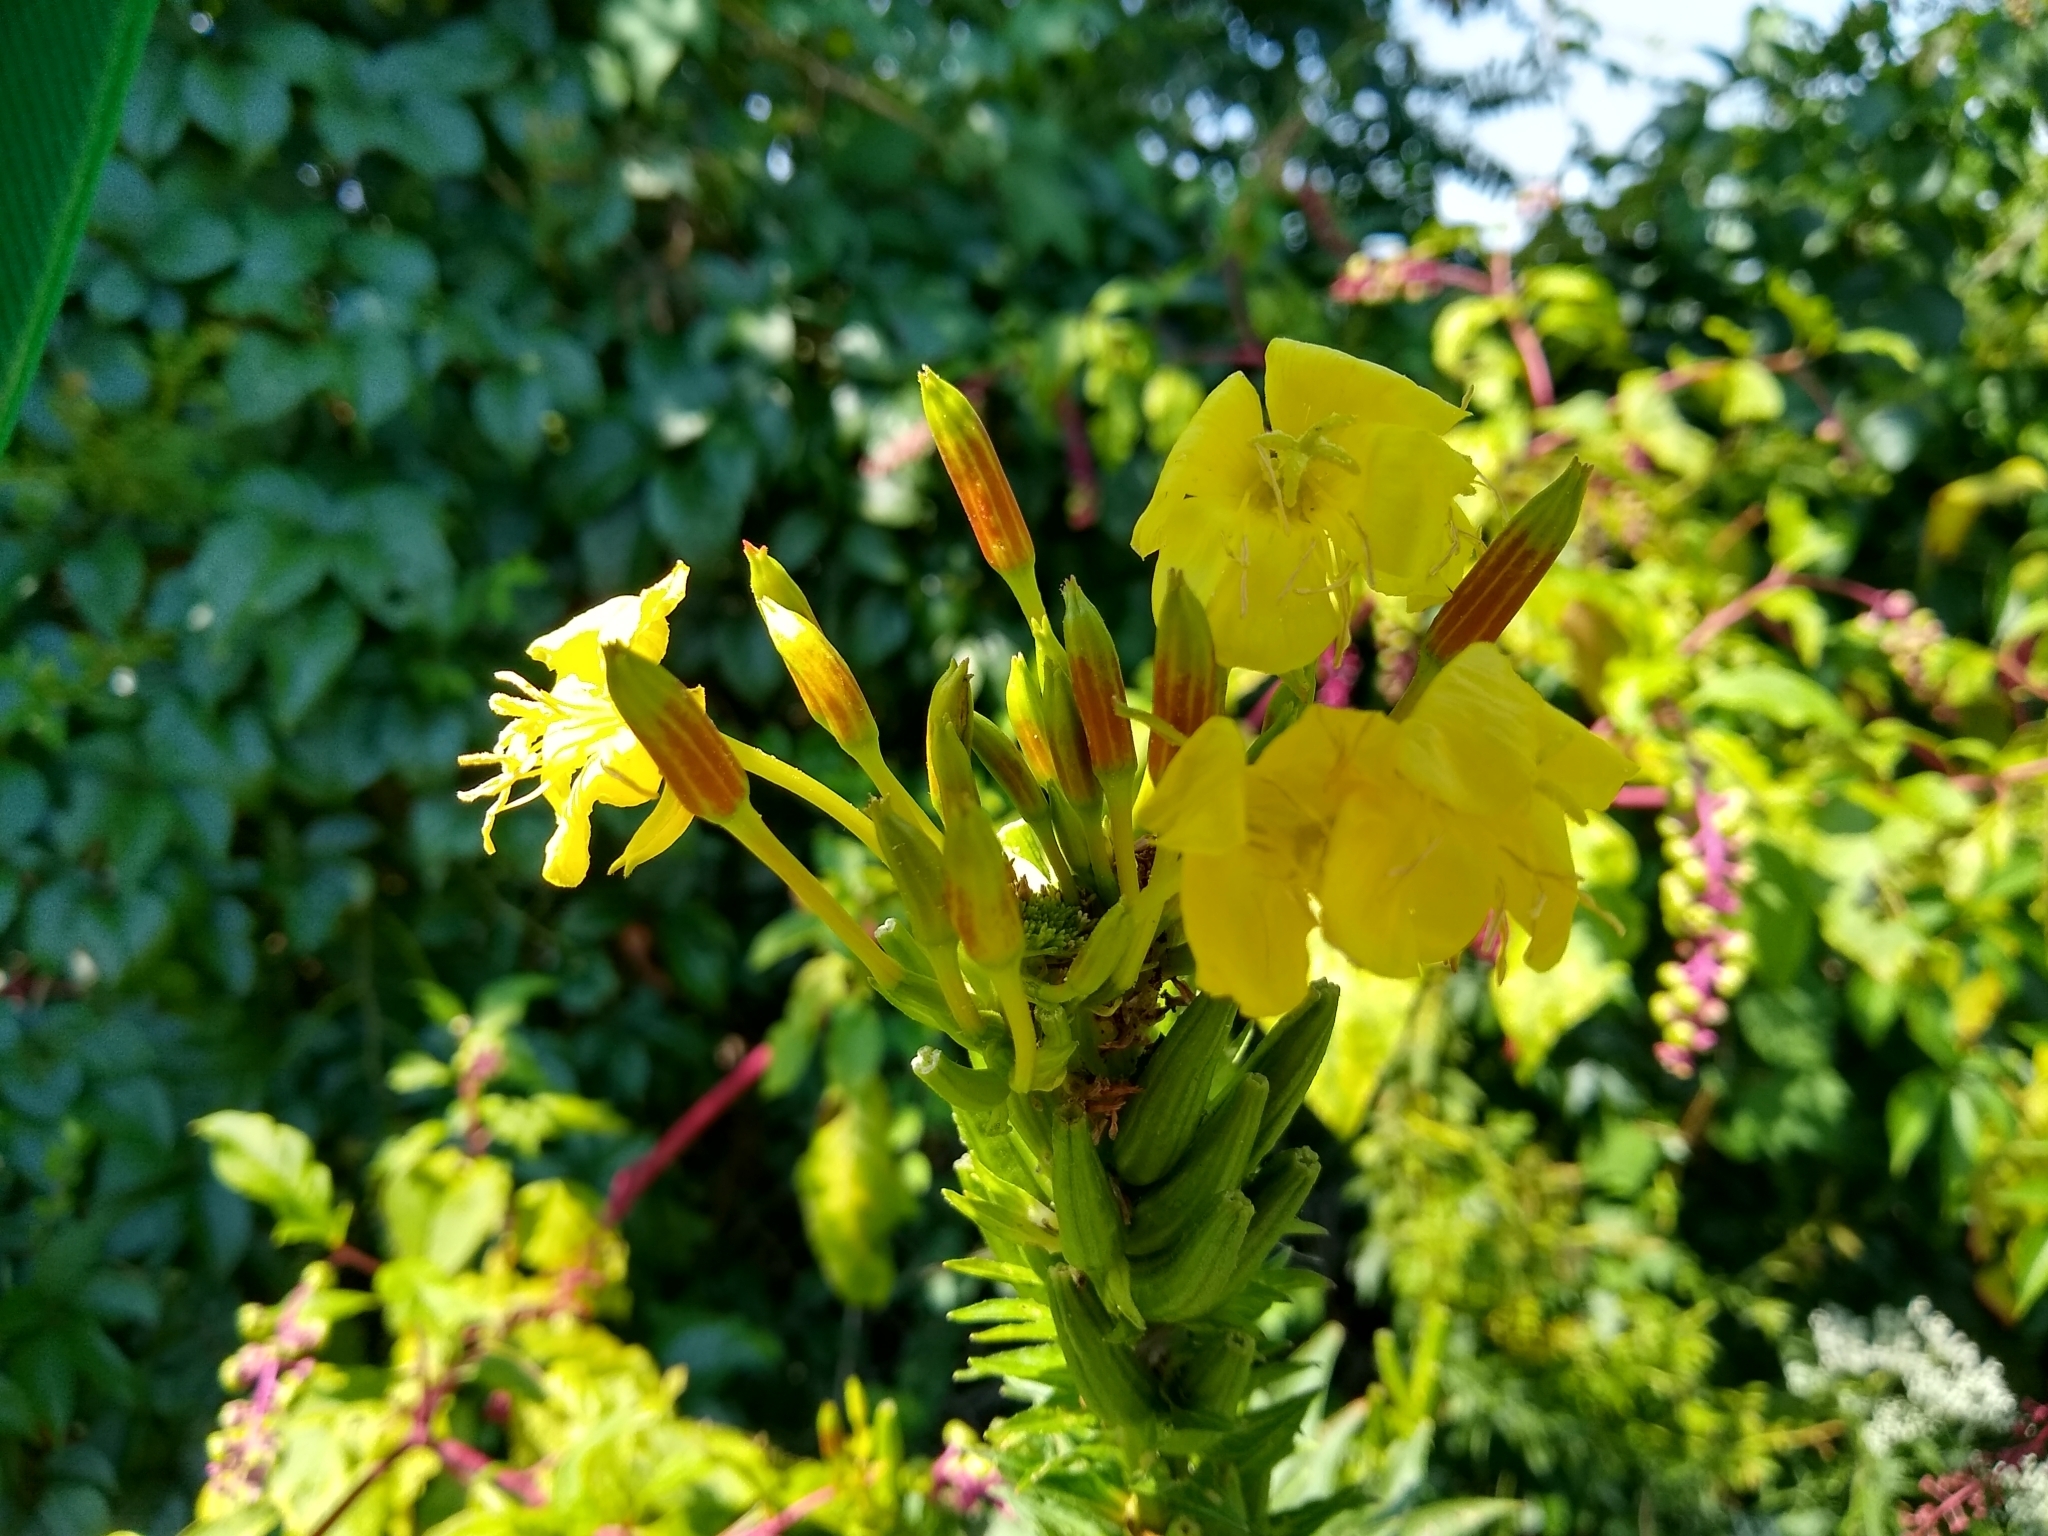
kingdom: Plantae
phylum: Tracheophyta
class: Magnoliopsida
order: Myrtales
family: Onagraceae
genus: Oenothera
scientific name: Oenothera biennis
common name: Common evening-primrose
